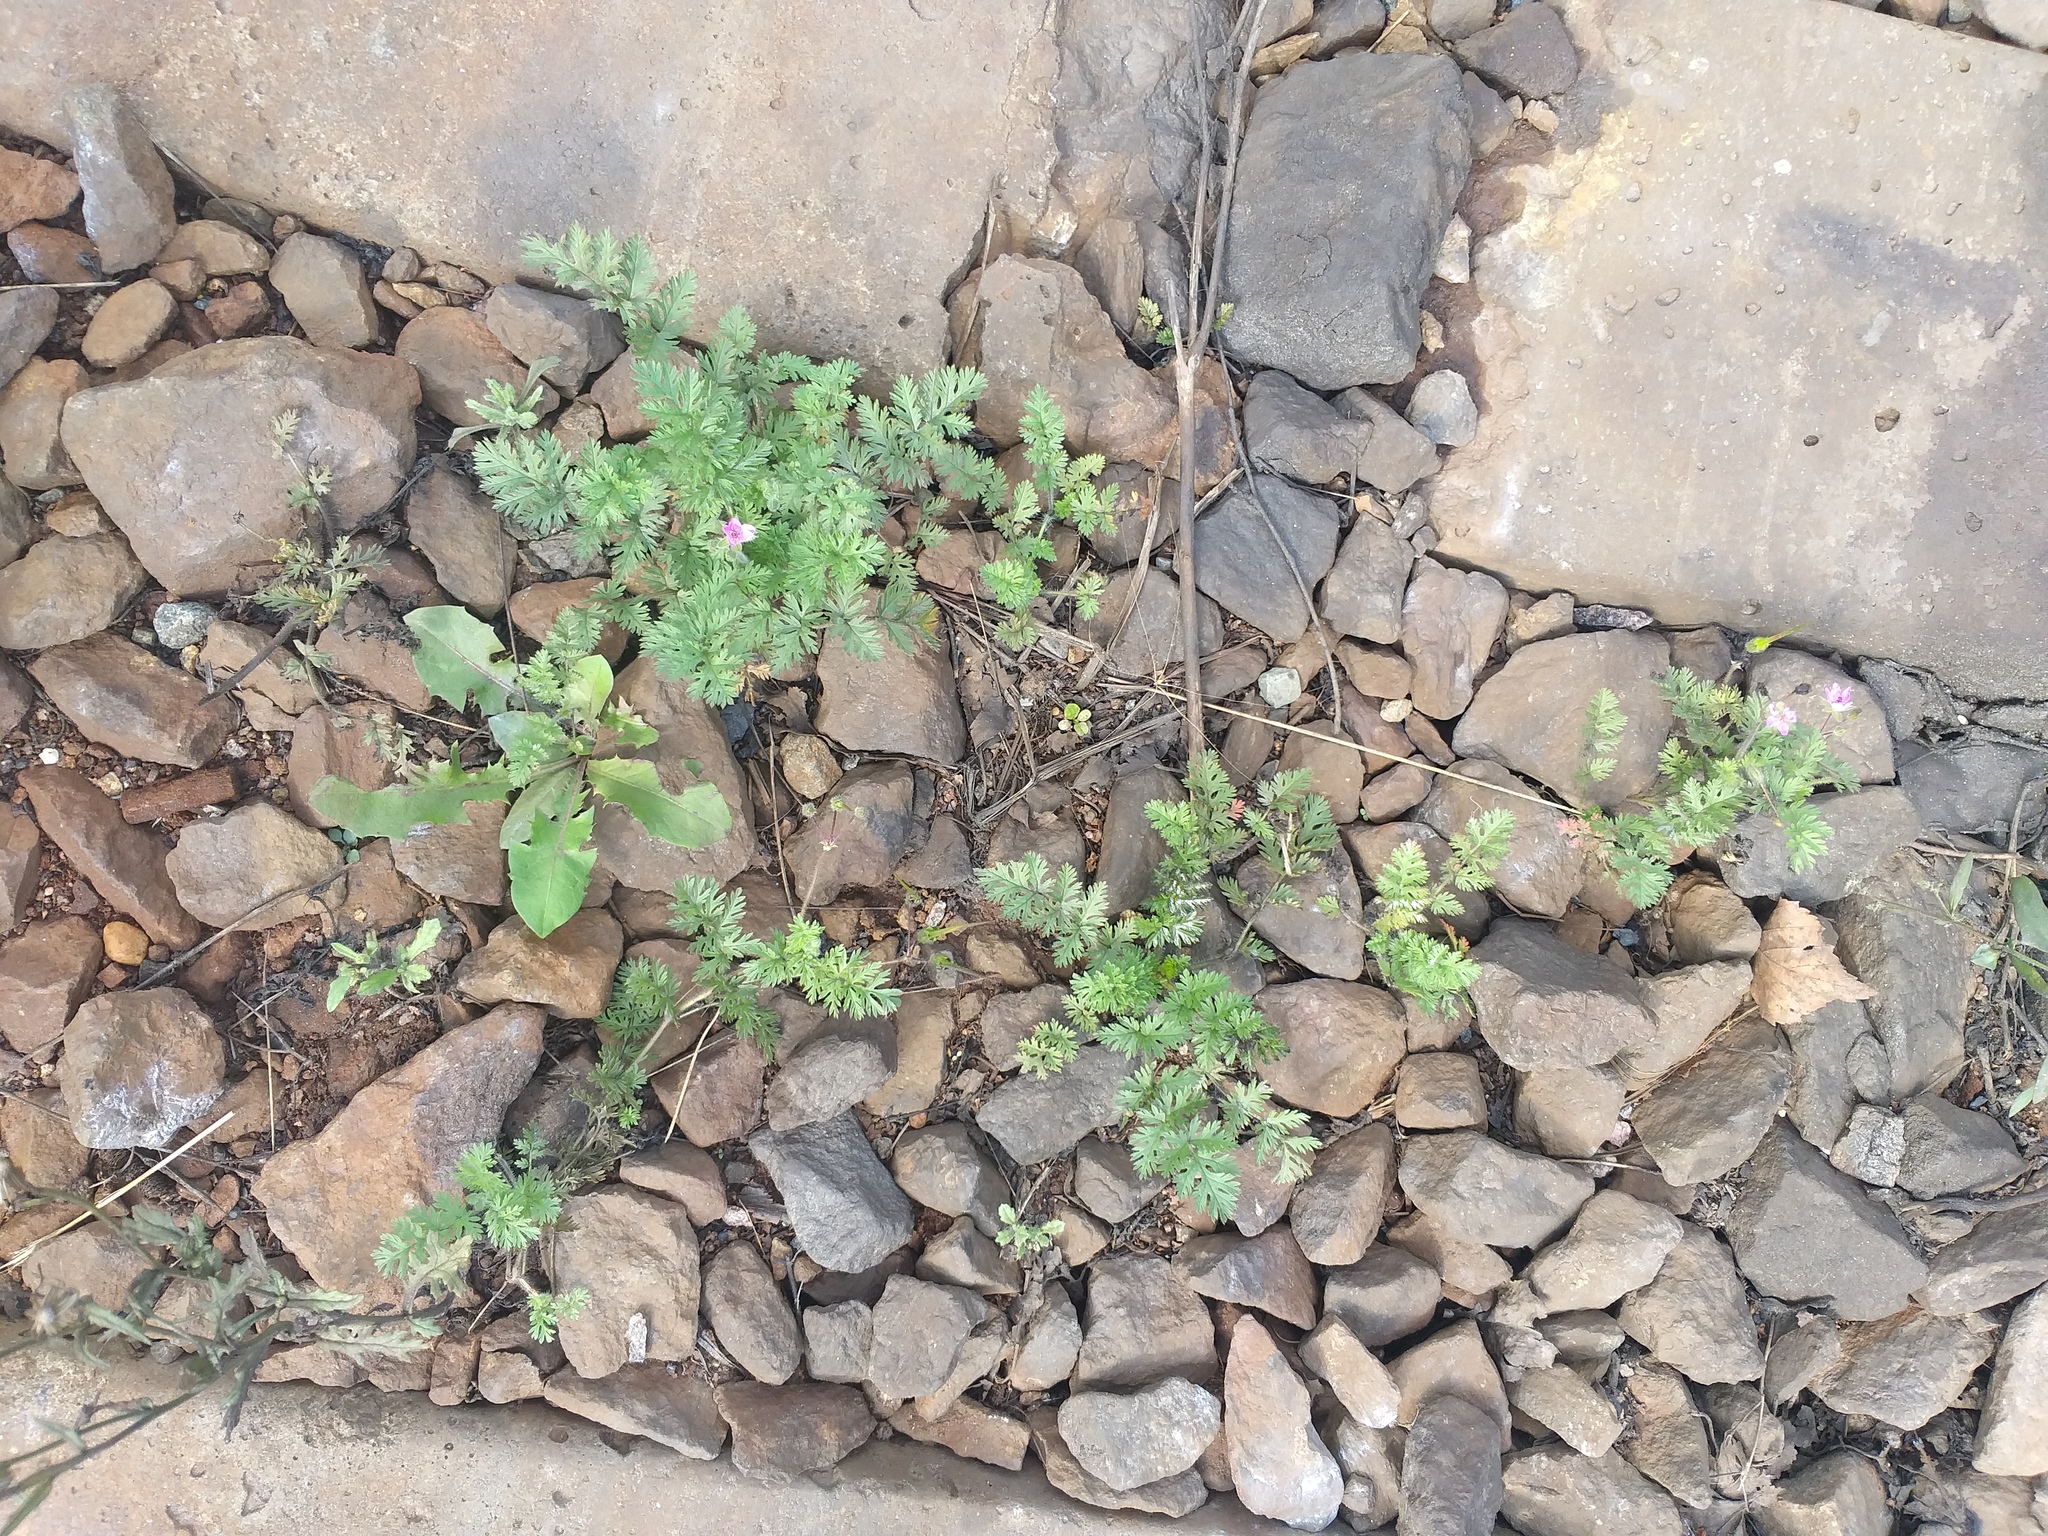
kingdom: Plantae
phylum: Tracheophyta
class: Magnoliopsida
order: Geraniales
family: Geraniaceae
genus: Erodium
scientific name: Erodium cicutarium
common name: Common stork's-bill
